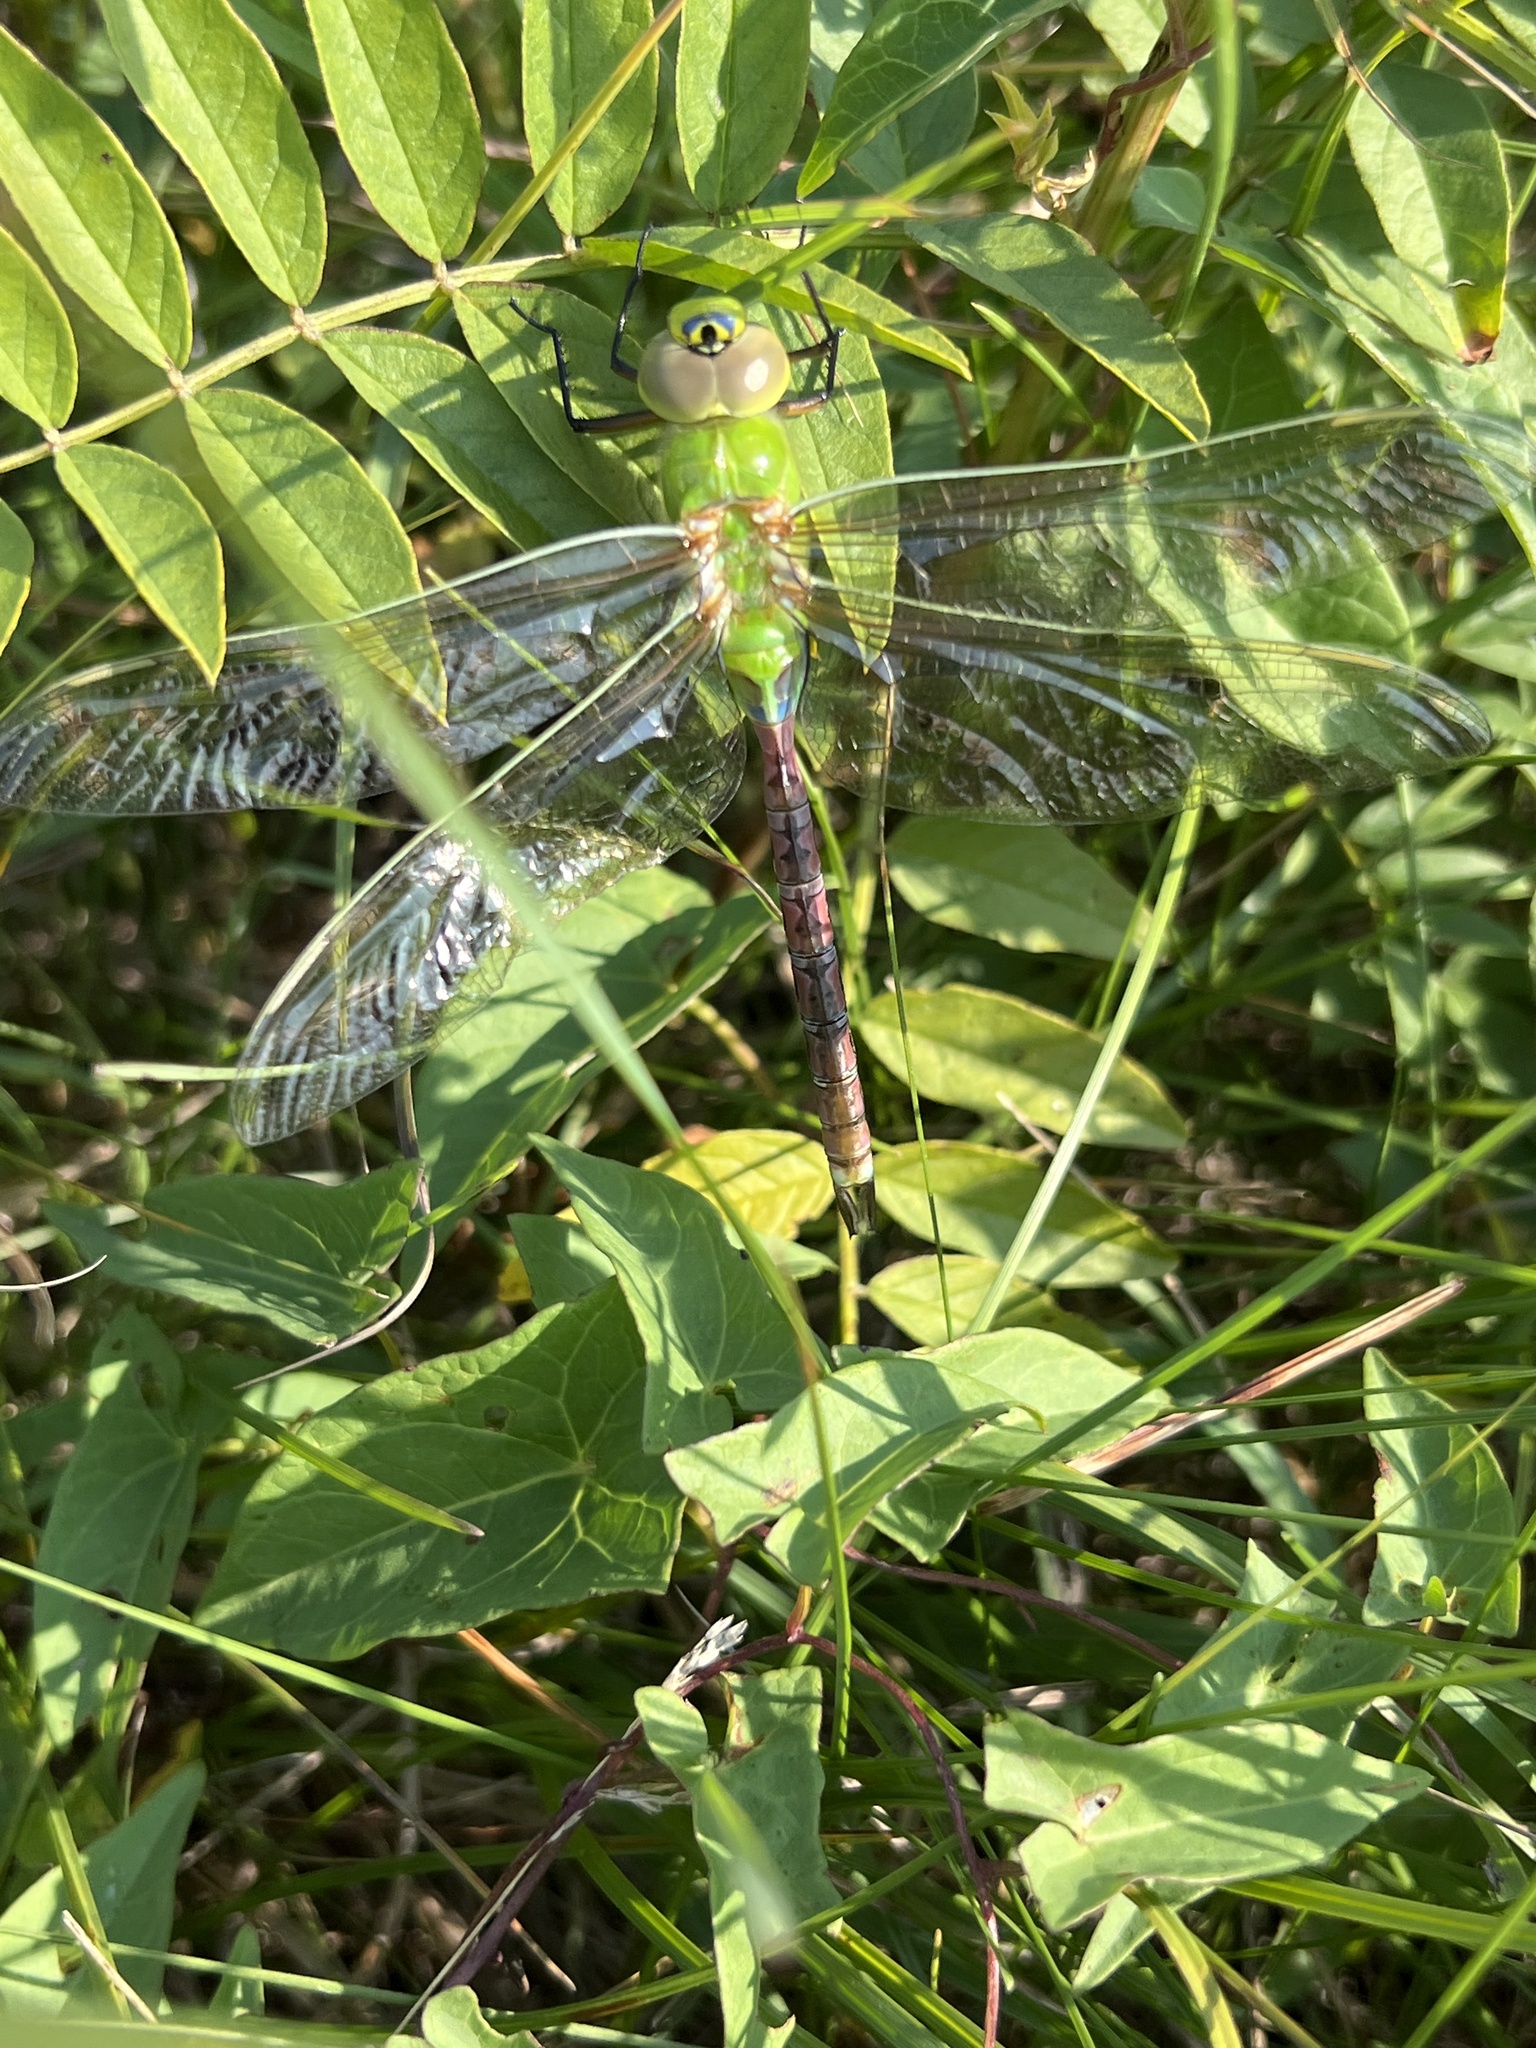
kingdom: Animalia
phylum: Arthropoda
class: Insecta
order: Odonata
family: Aeshnidae
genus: Anax
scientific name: Anax junius
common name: Common green darner
